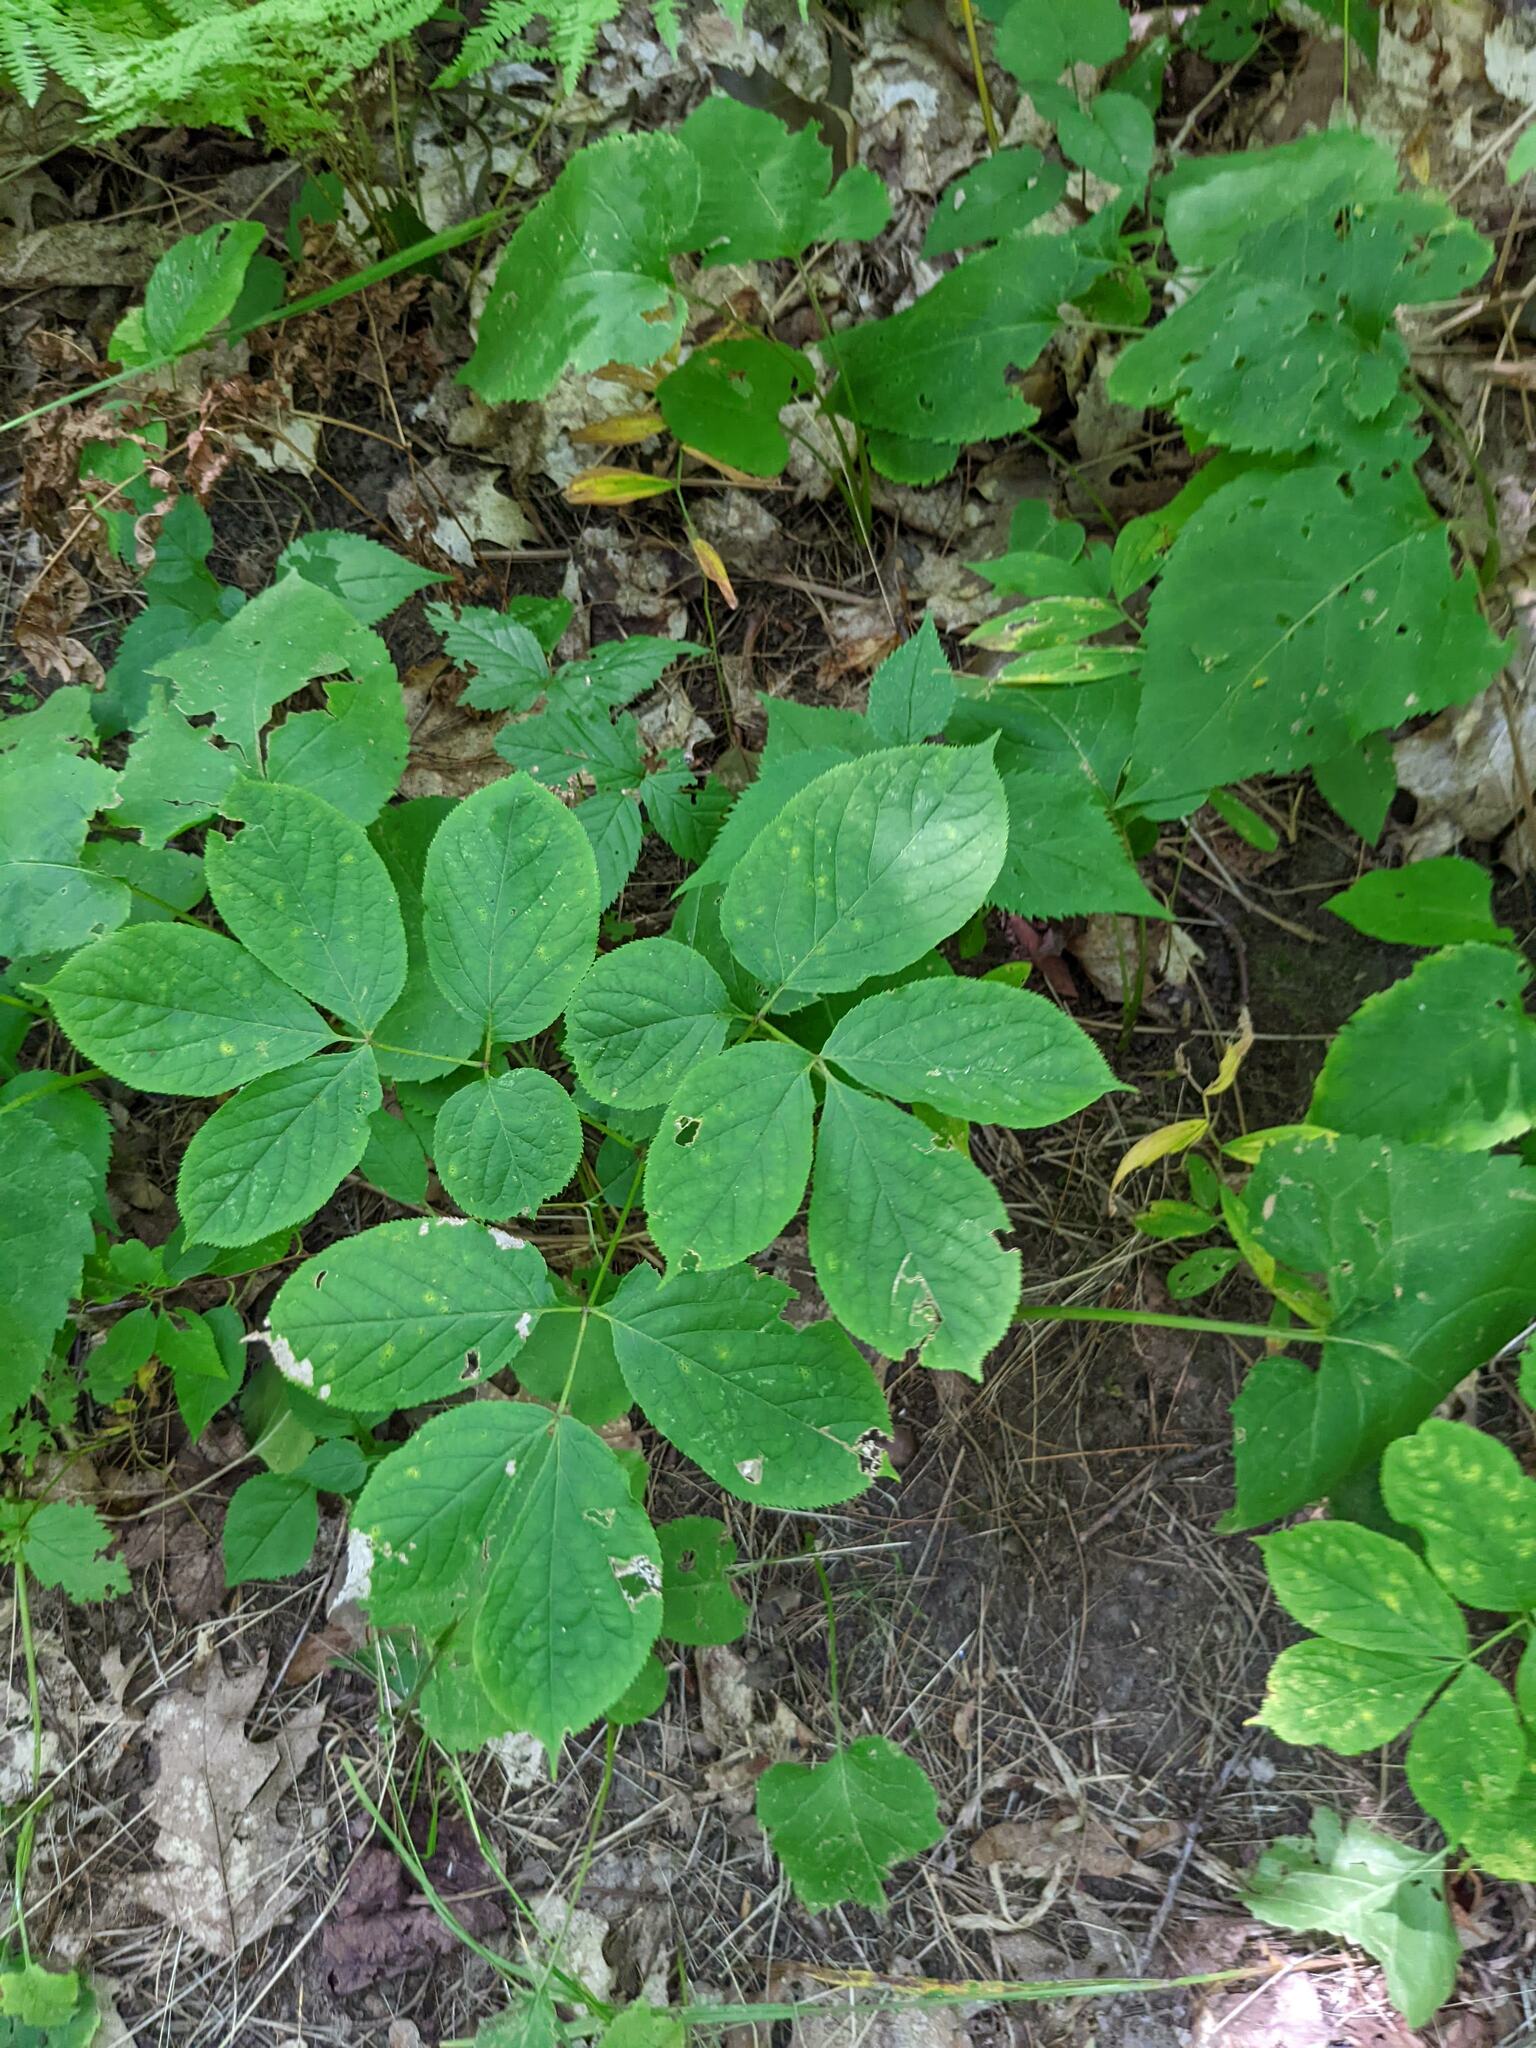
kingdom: Plantae
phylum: Tracheophyta
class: Magnoliopsida
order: Apiales
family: Araliaceae
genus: Aralia
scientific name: Aralia nudicaulis
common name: Wild sarsaparilla
